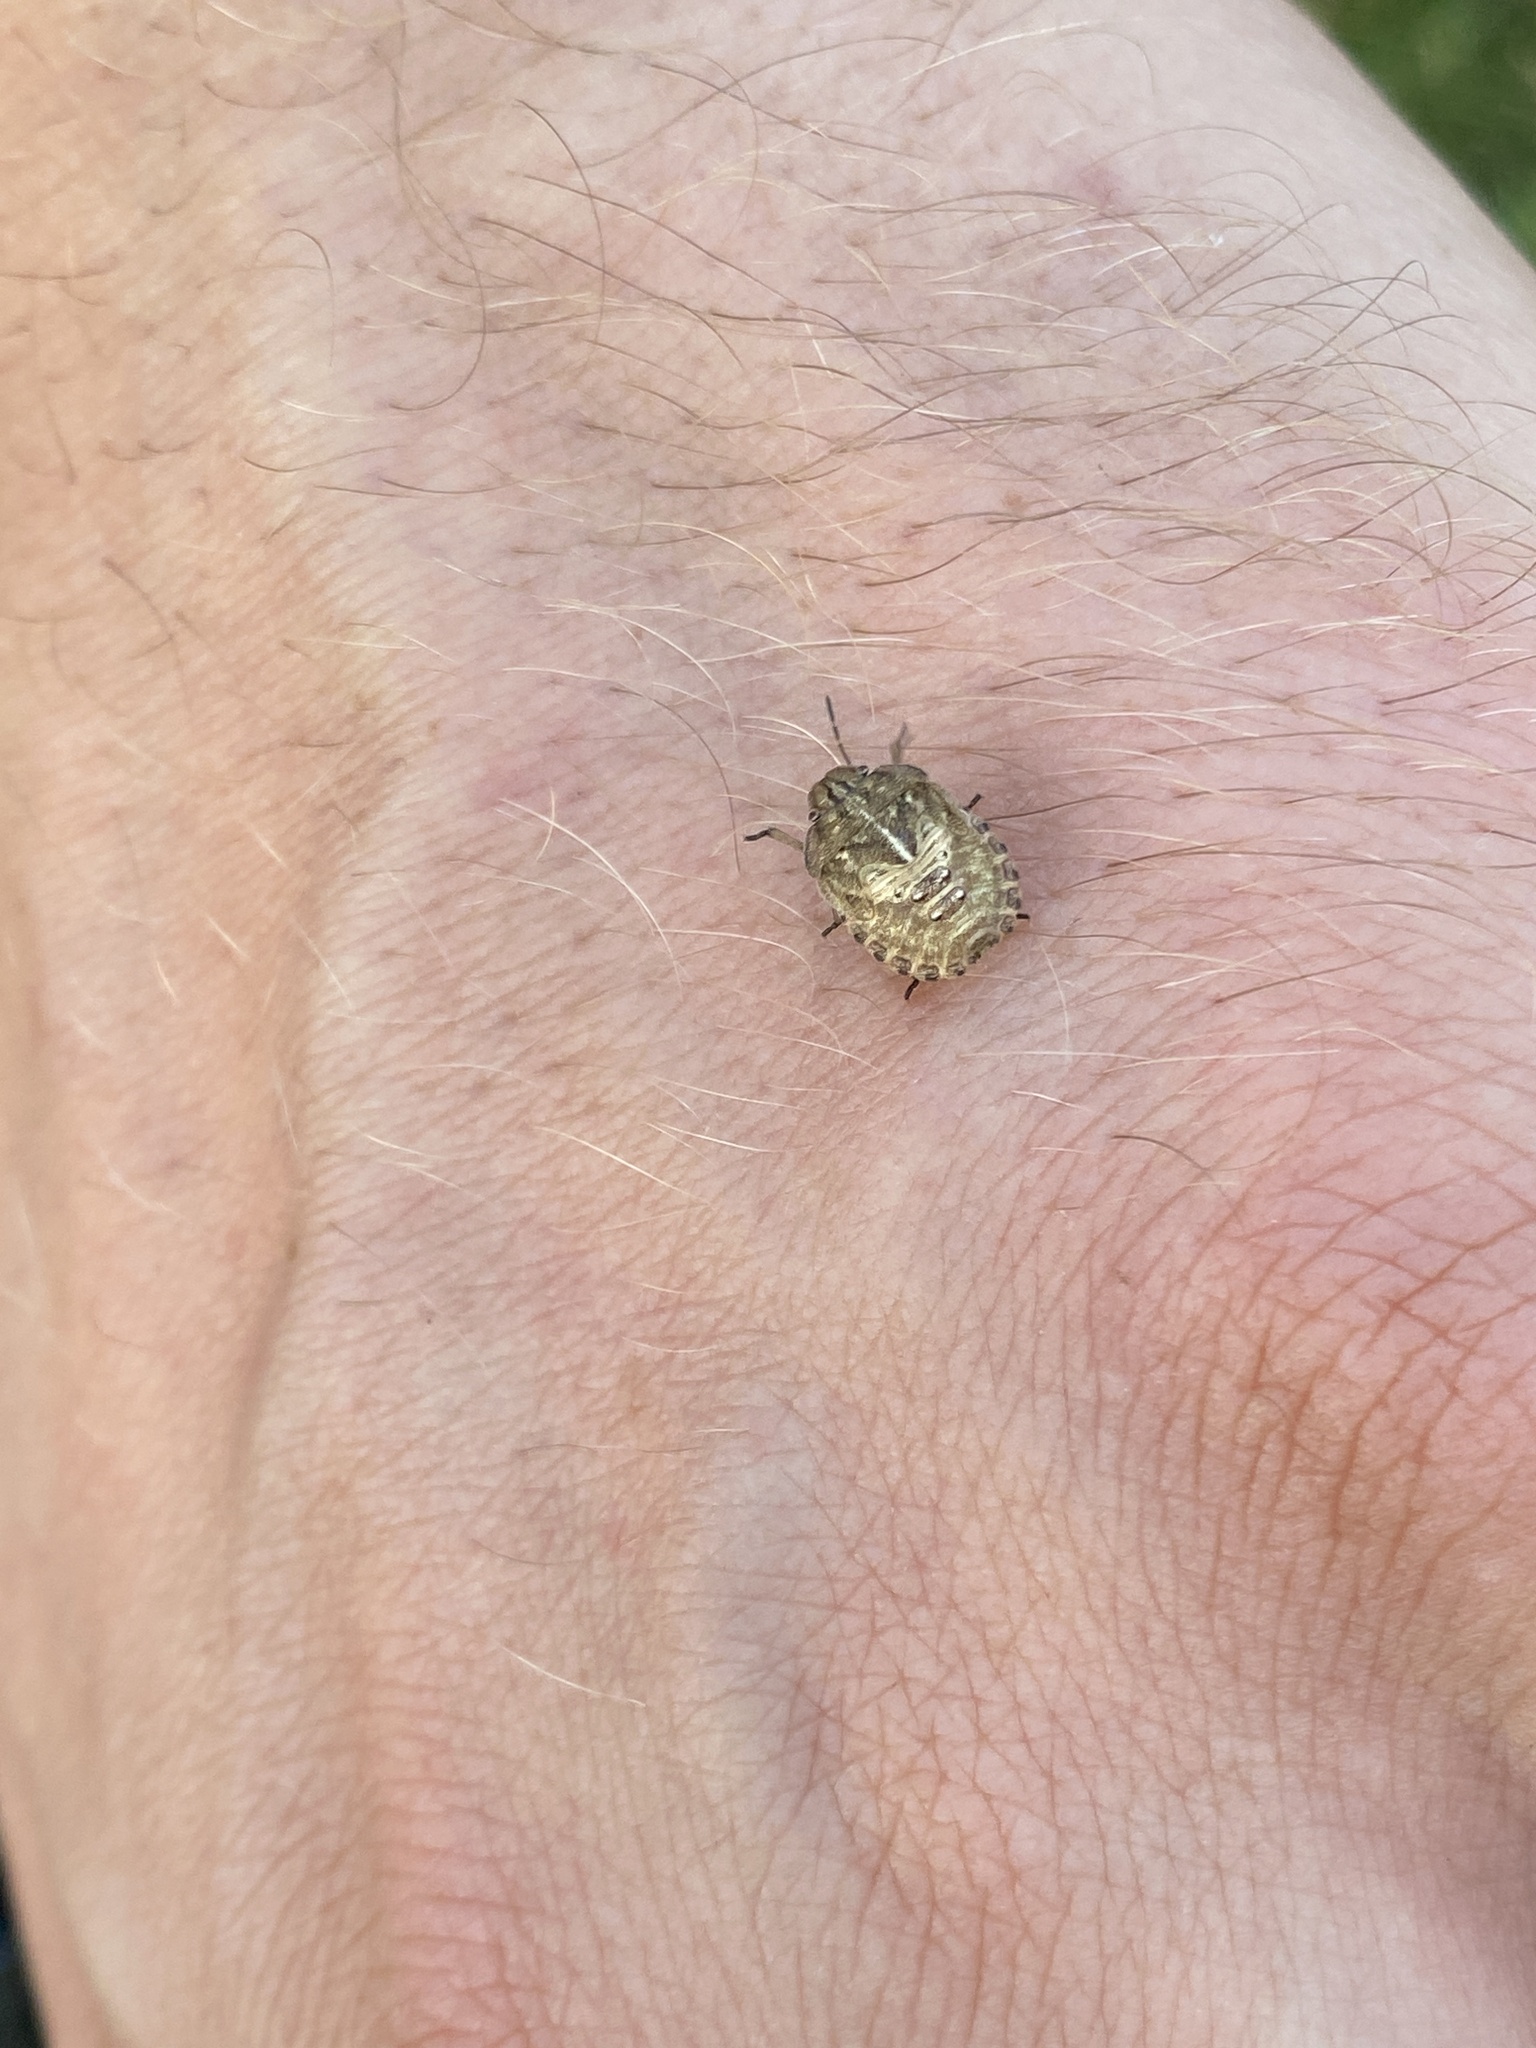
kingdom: Animalia
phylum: Arthropoda
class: Insecta
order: Hemiptera
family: Scutelleridae
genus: Eurygaster
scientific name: Eurygaster testudinaria
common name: Tortoise bug
